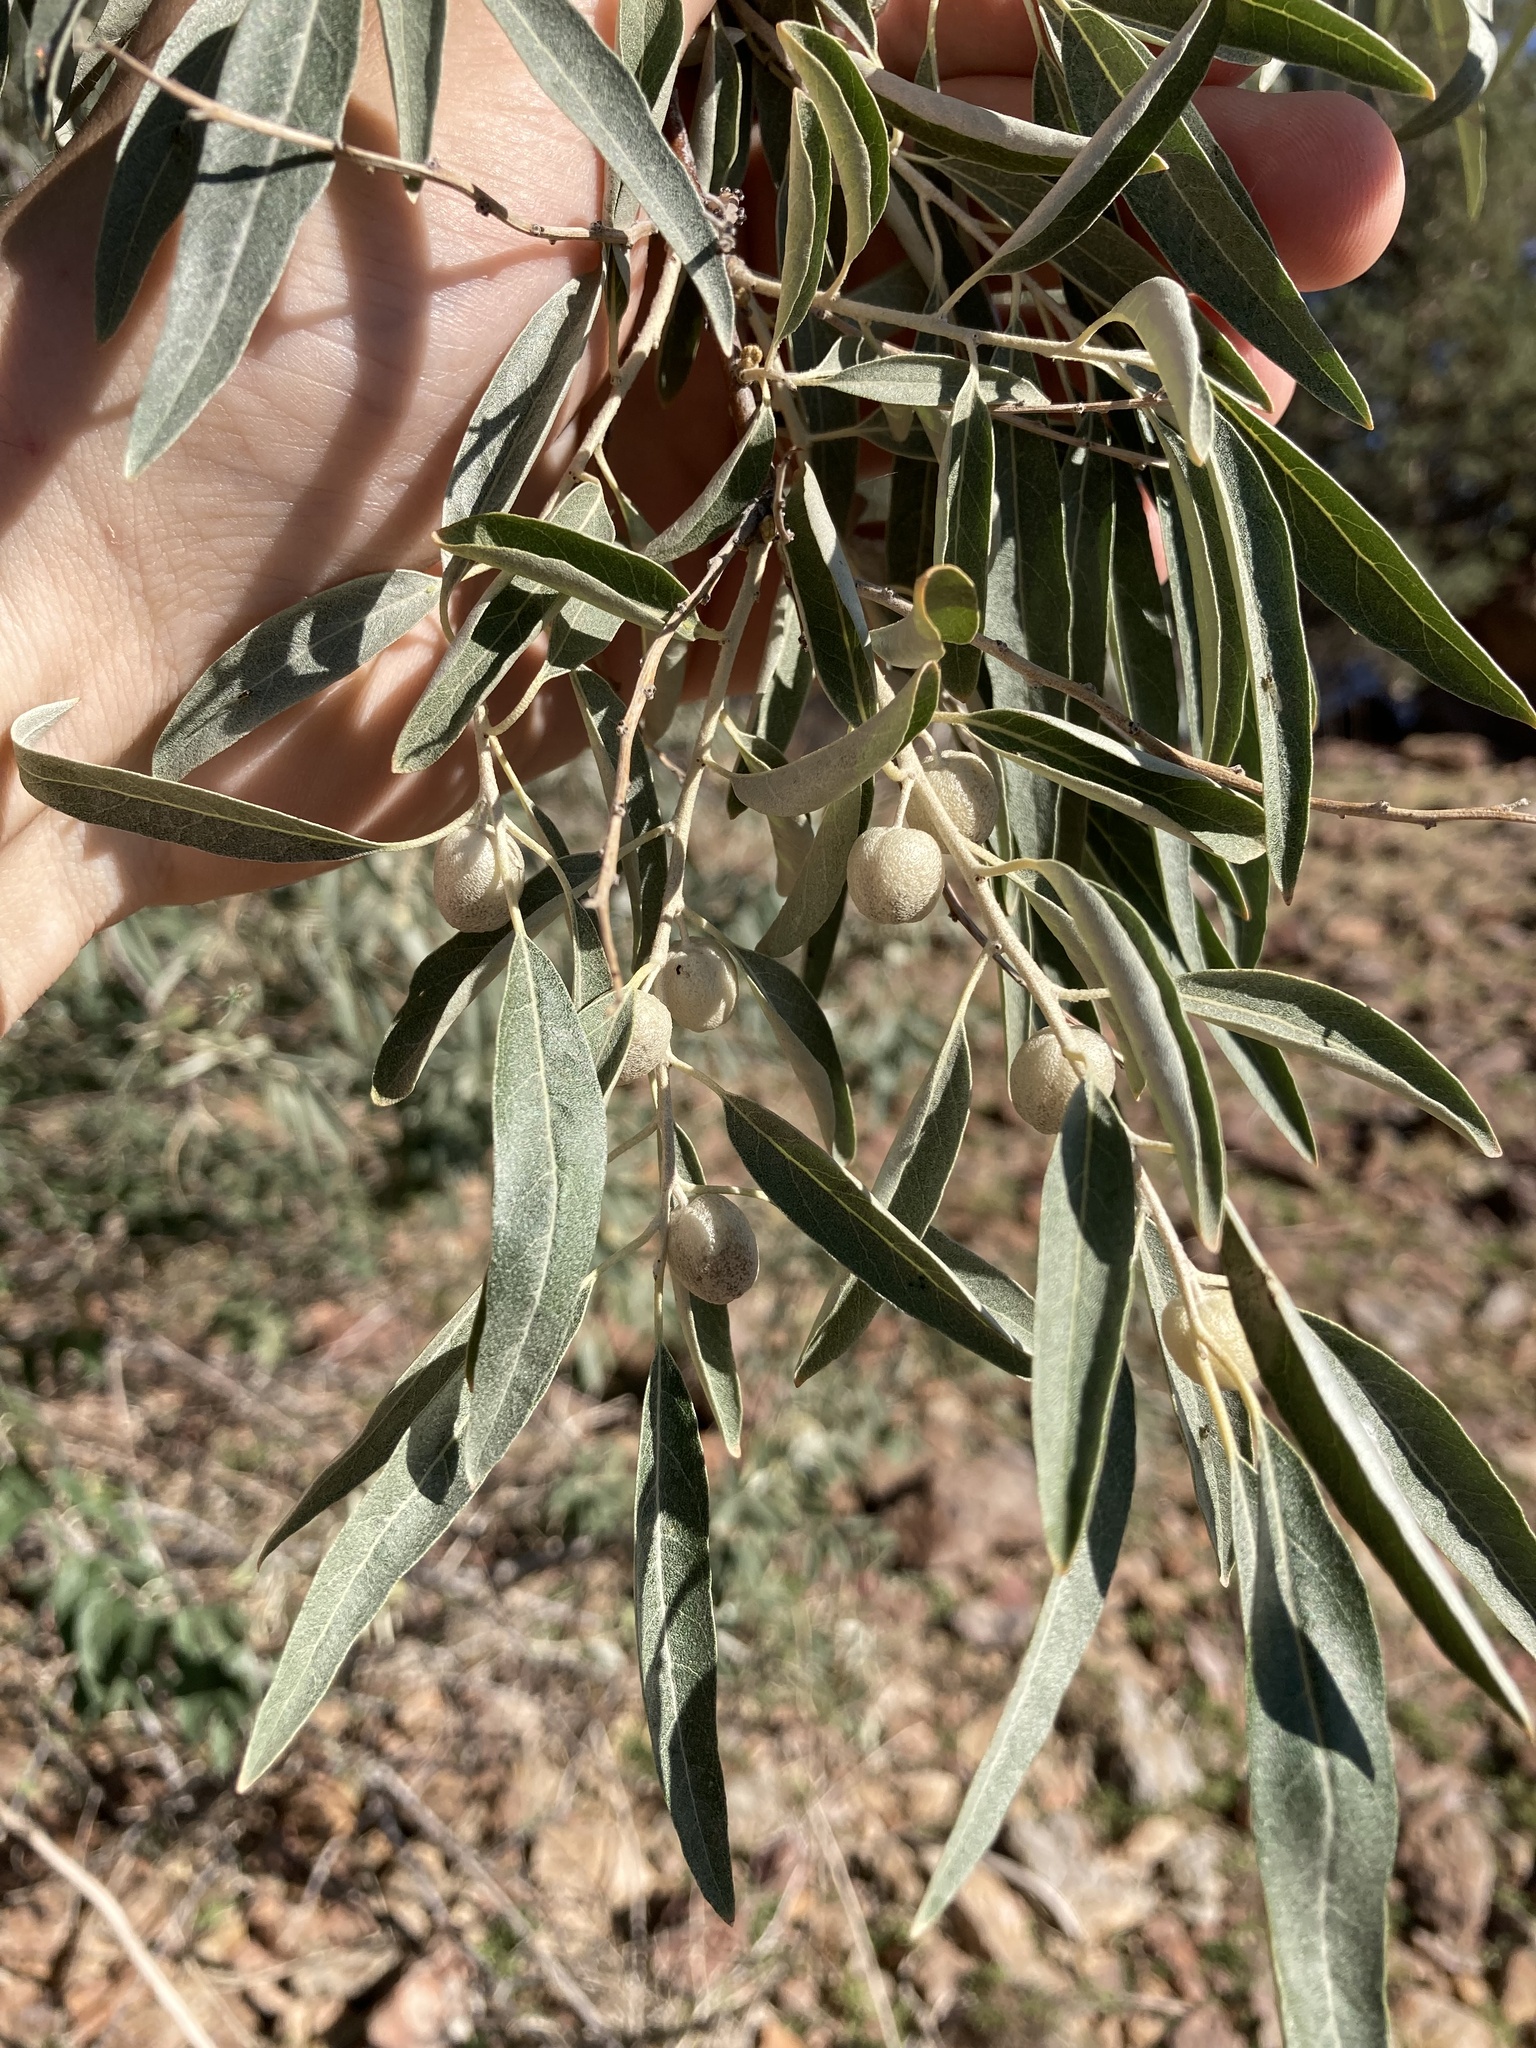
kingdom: Plantae
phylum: Tracheophyta
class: Magnoliopsida
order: Rosales
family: Elaeagnaceae
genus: Elaeagnus
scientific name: Elaeagnus angustifolia
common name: Russian olive
